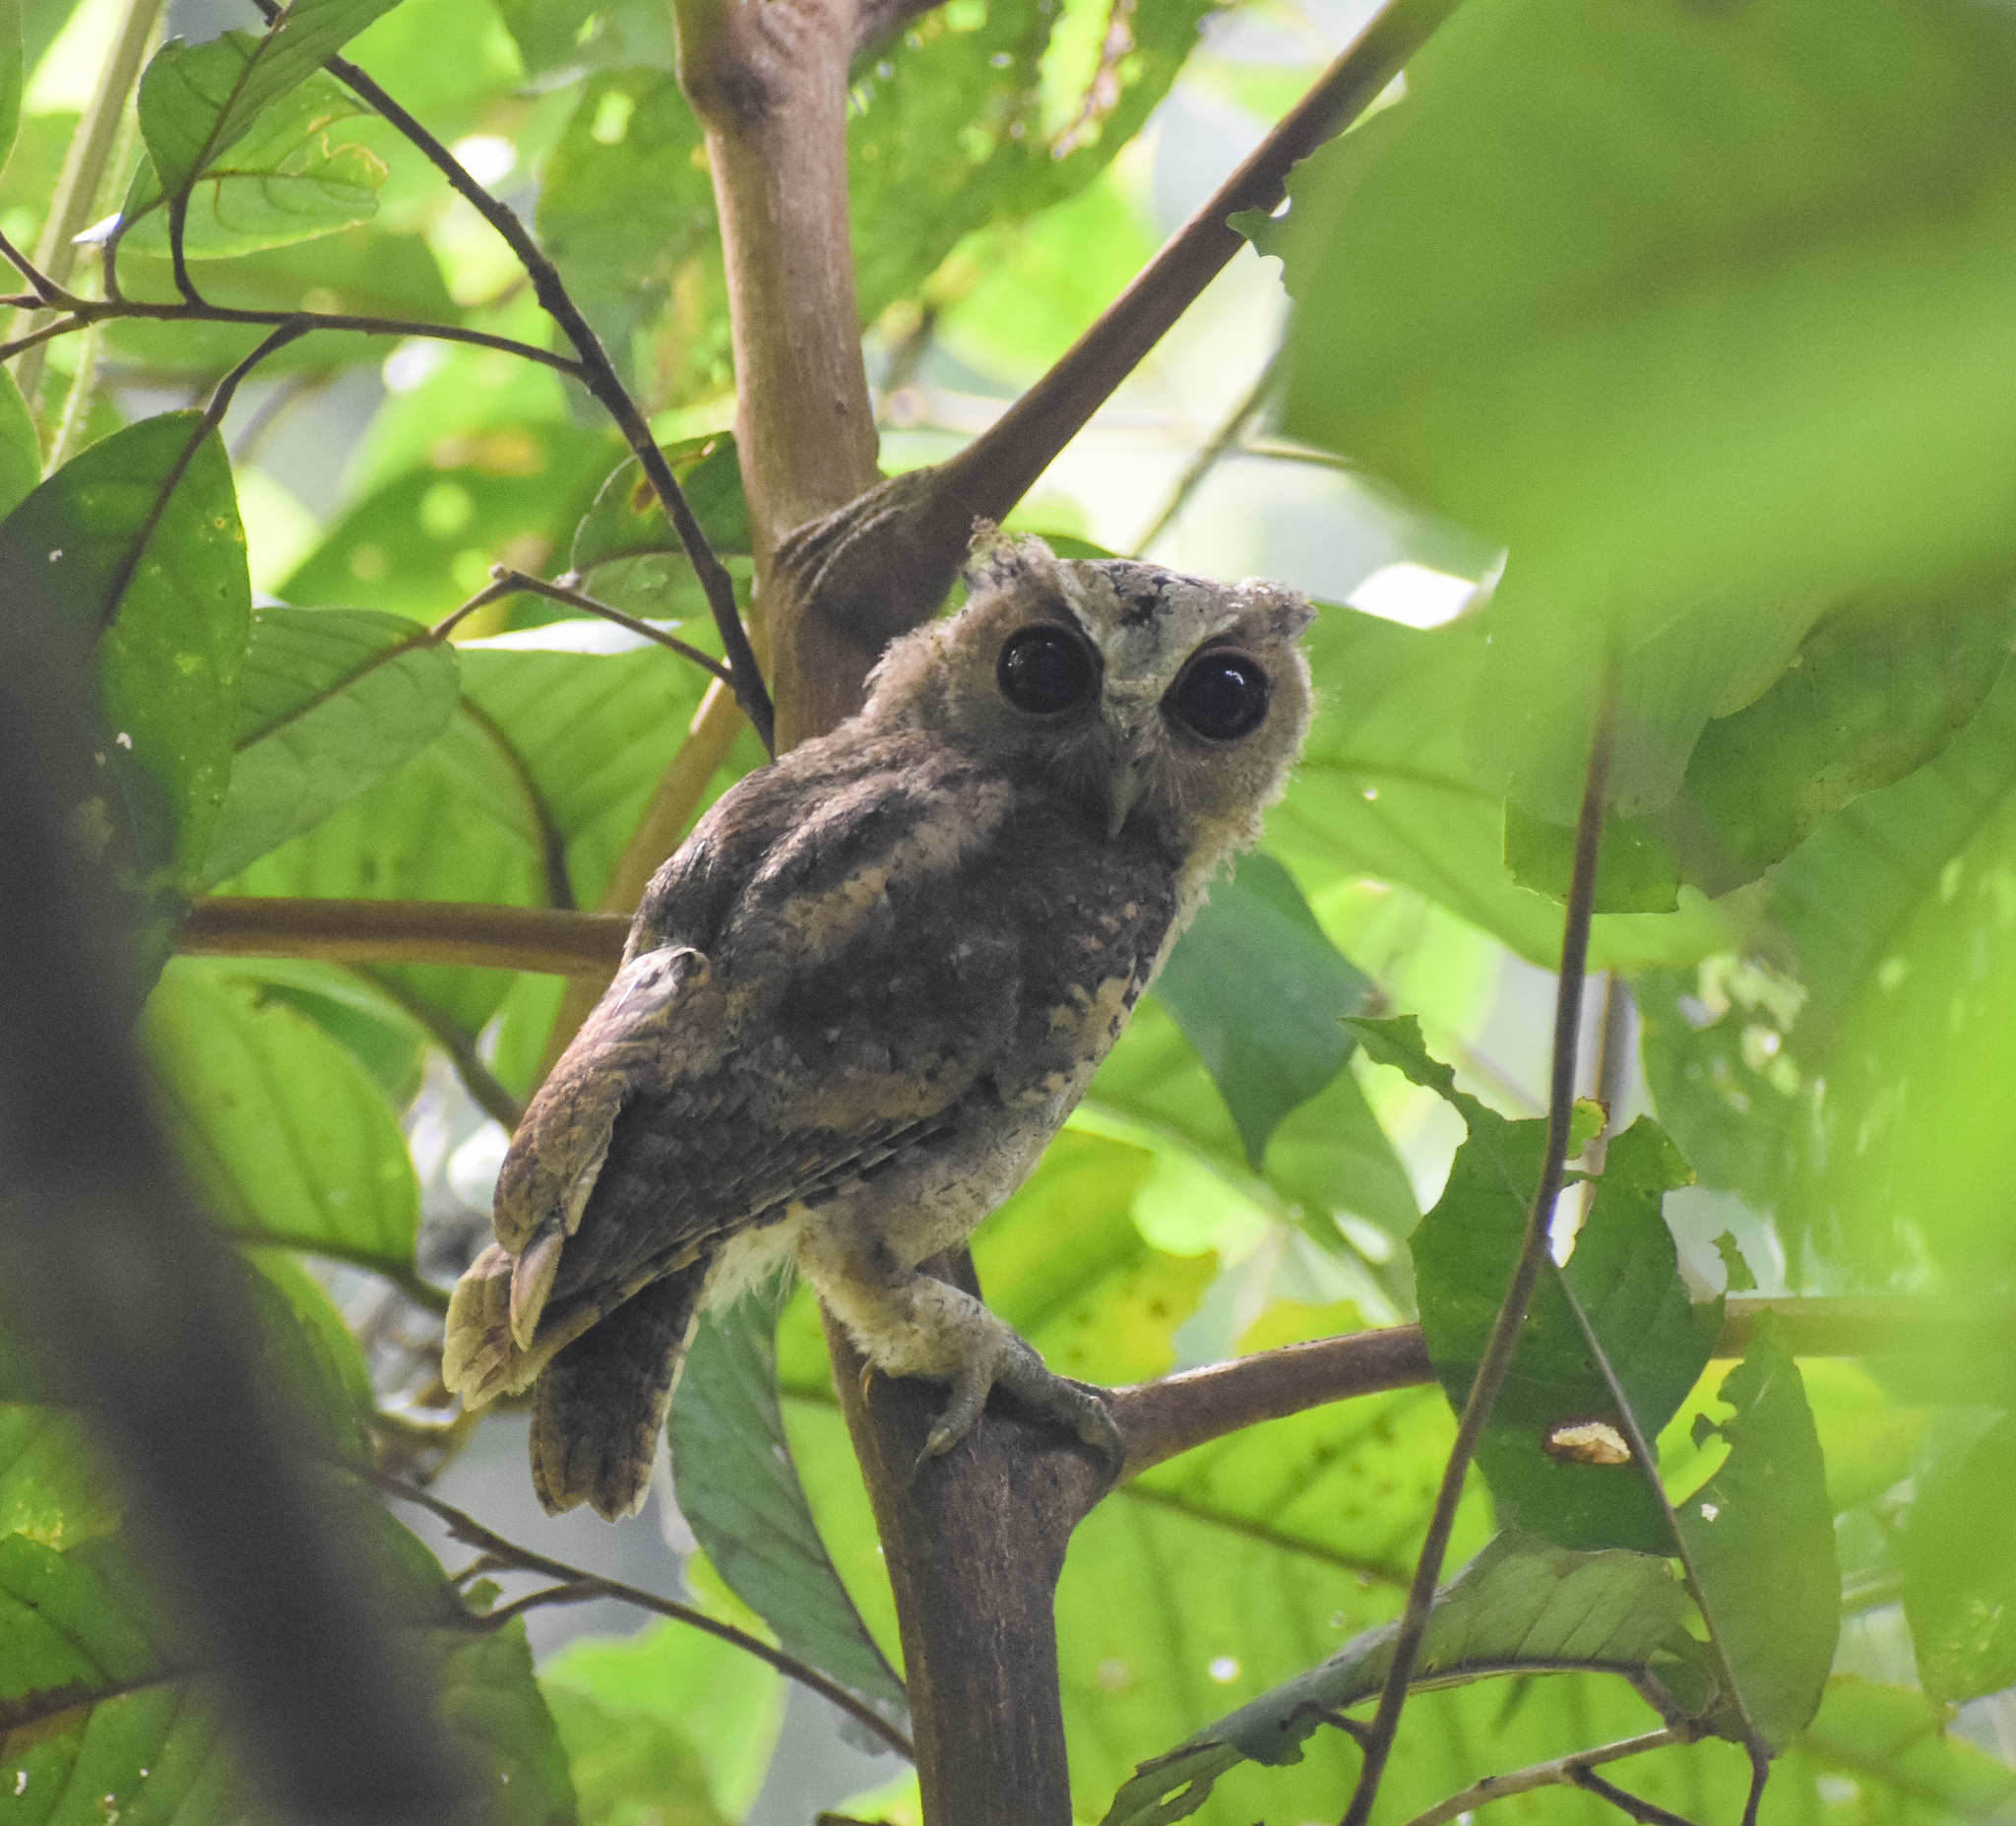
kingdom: Animalia
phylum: Chordata
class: Aves
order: Strigiformes
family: Strigidae
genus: Otus
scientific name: Otus lettia
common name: Collared scops owl
